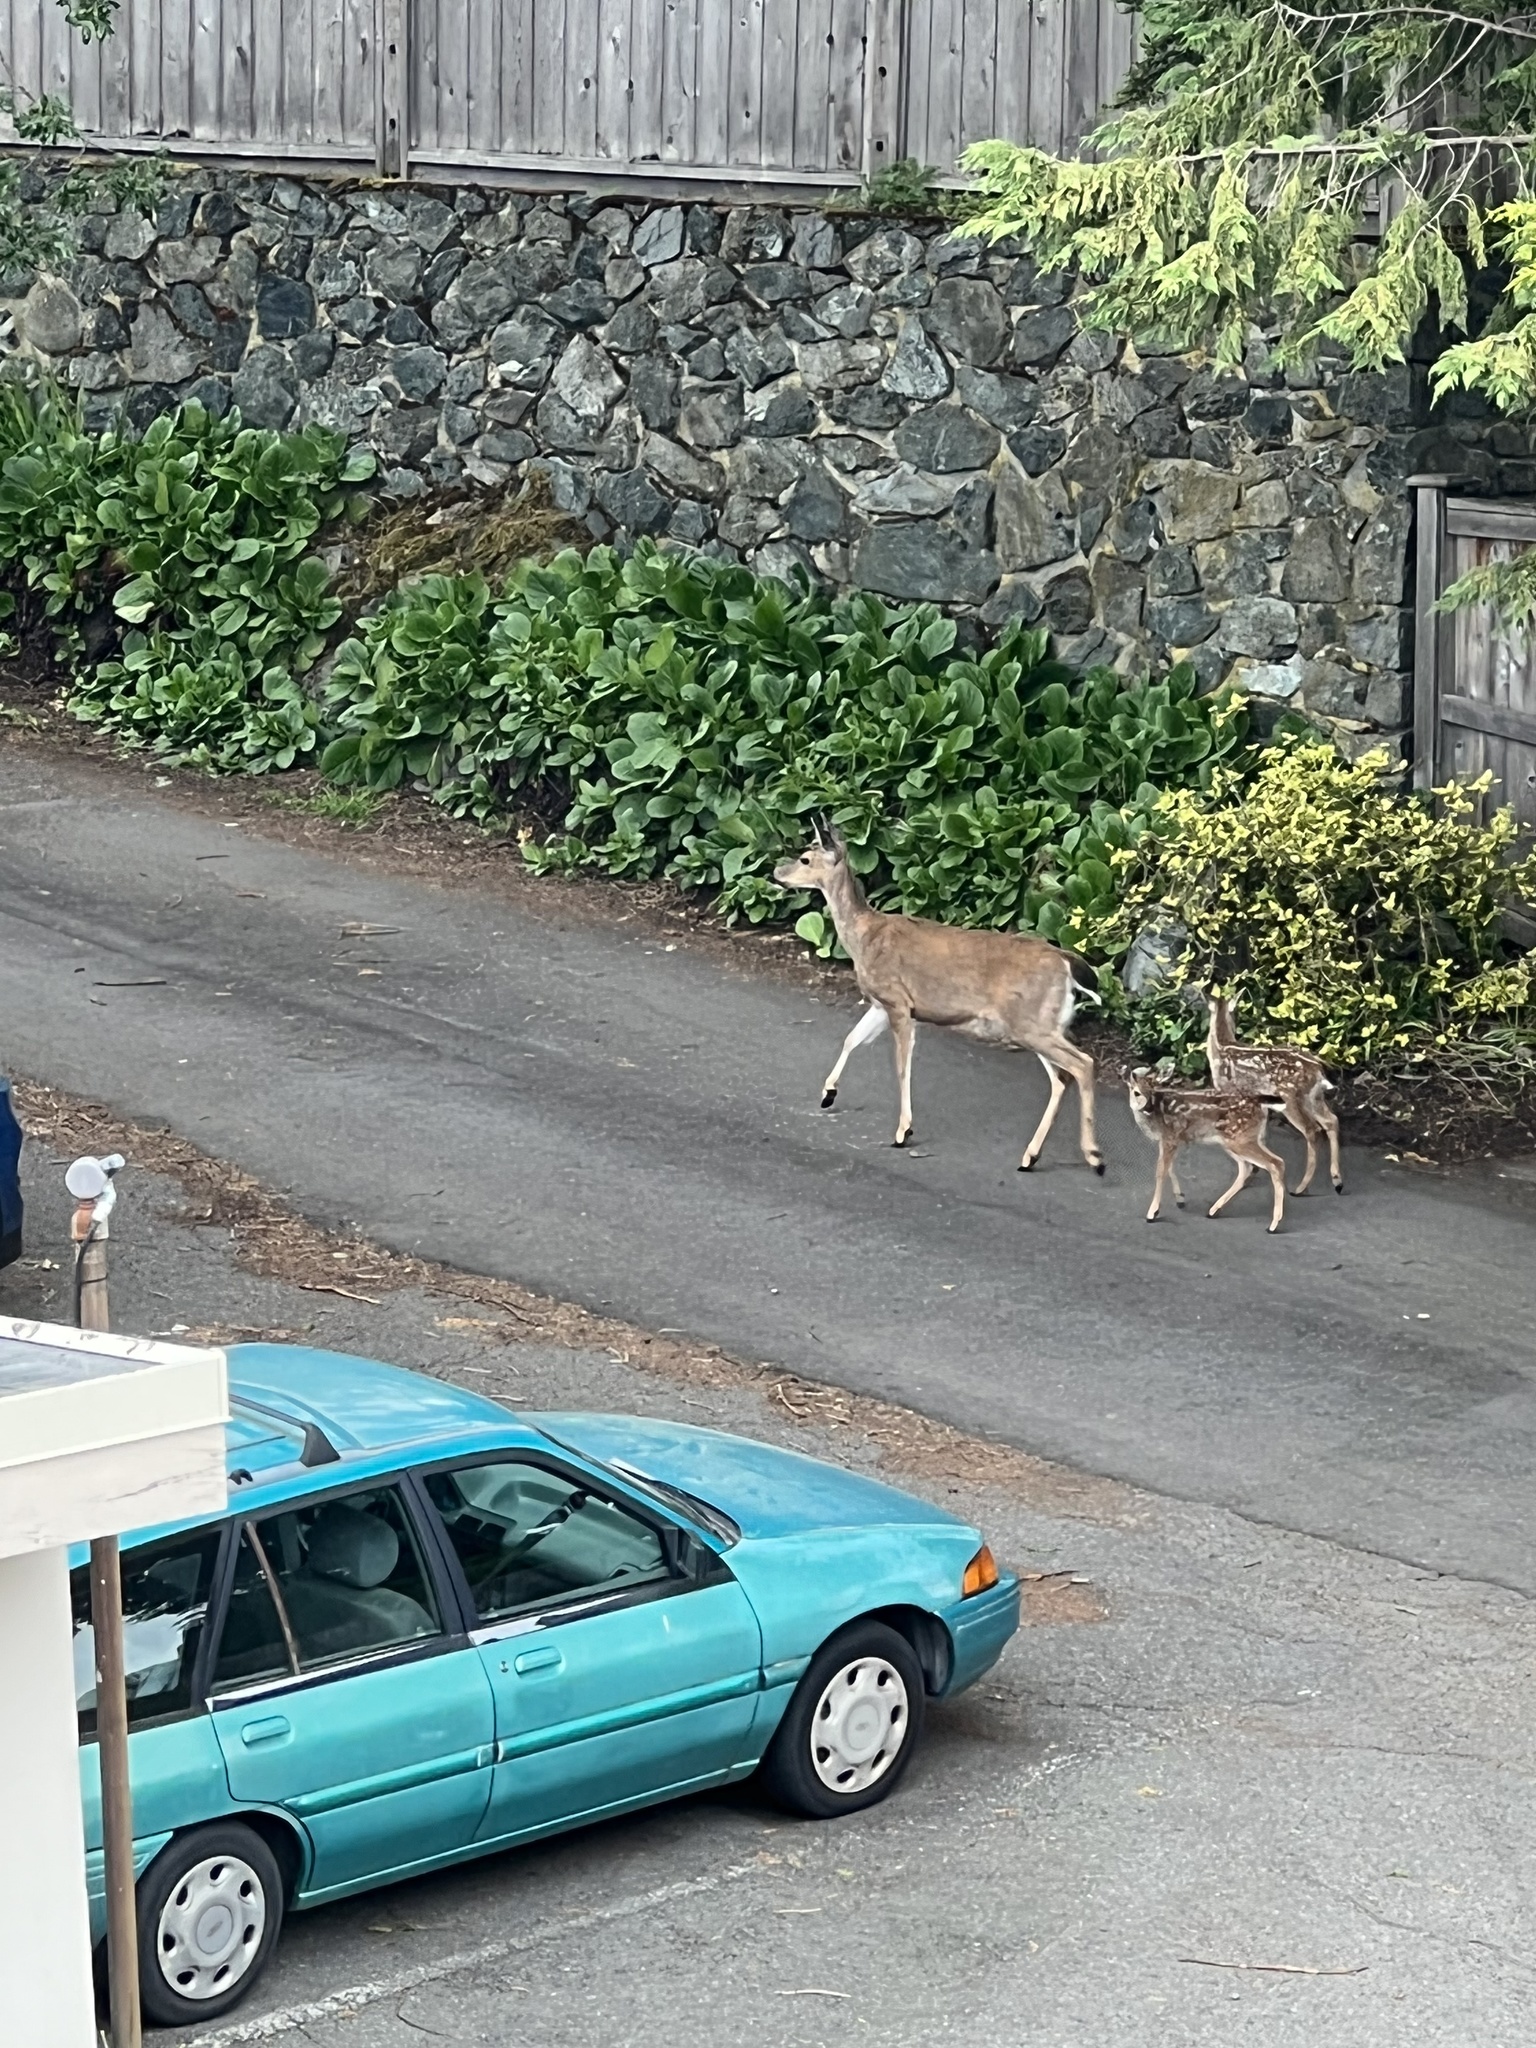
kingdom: Animalia
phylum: Chordata
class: Mammalia
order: Artiodactyla
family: Cervidae
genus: Odocoileus
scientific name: Odocoileus hemionus
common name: Mule deer
